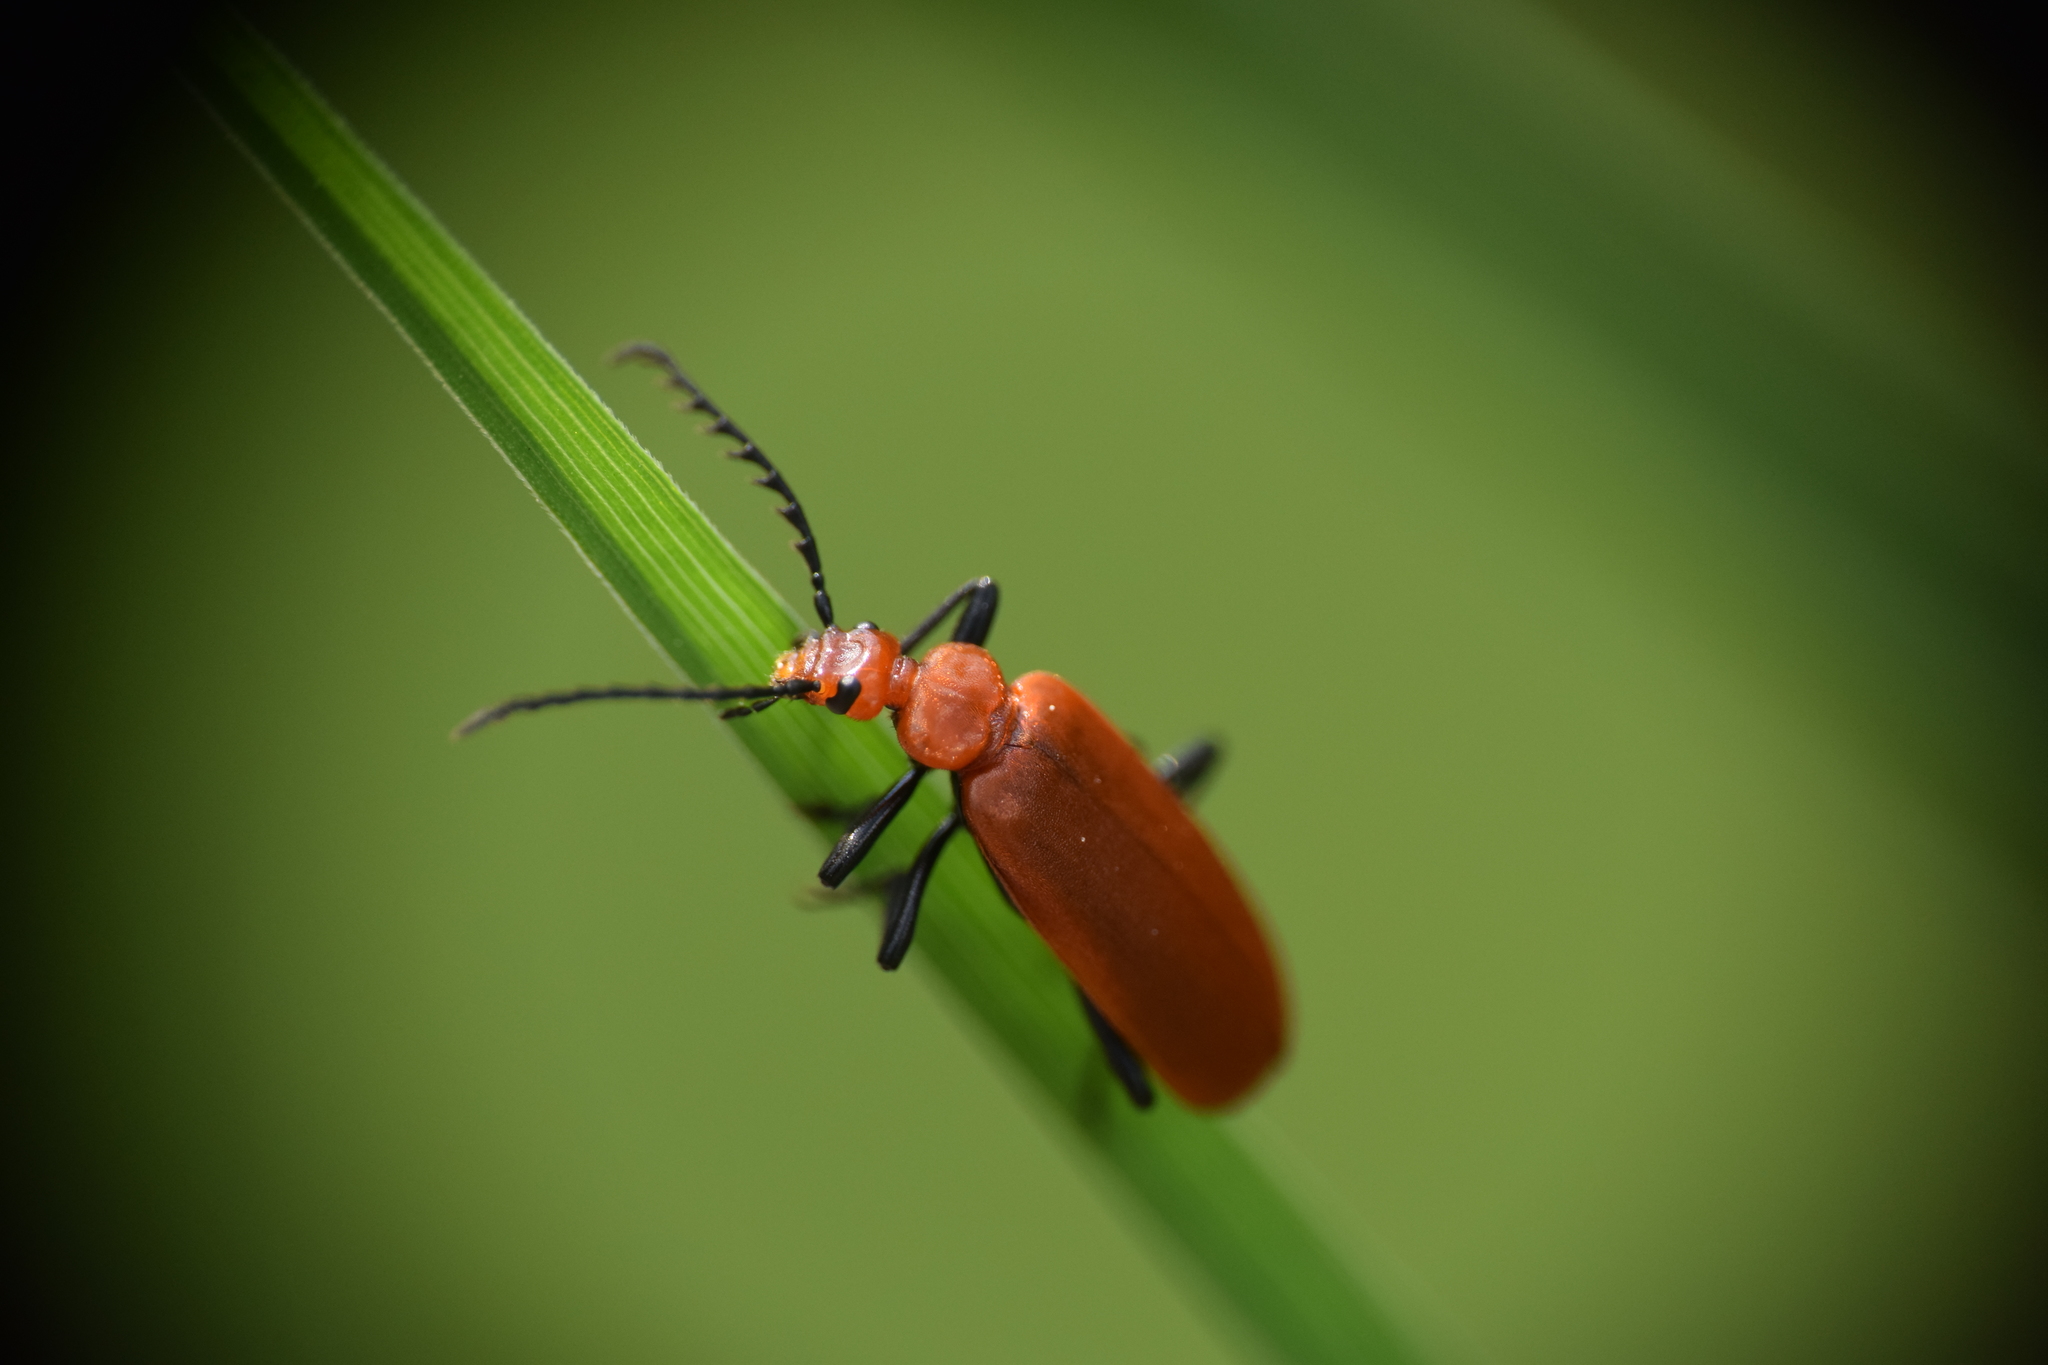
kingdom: Animalia
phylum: Arthropoda
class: Insecta
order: Coleoptera
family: Pyrochroidae
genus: Pyrochroa
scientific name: Pyrochroa serraticornis
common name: Red-headed cardinal beetle
